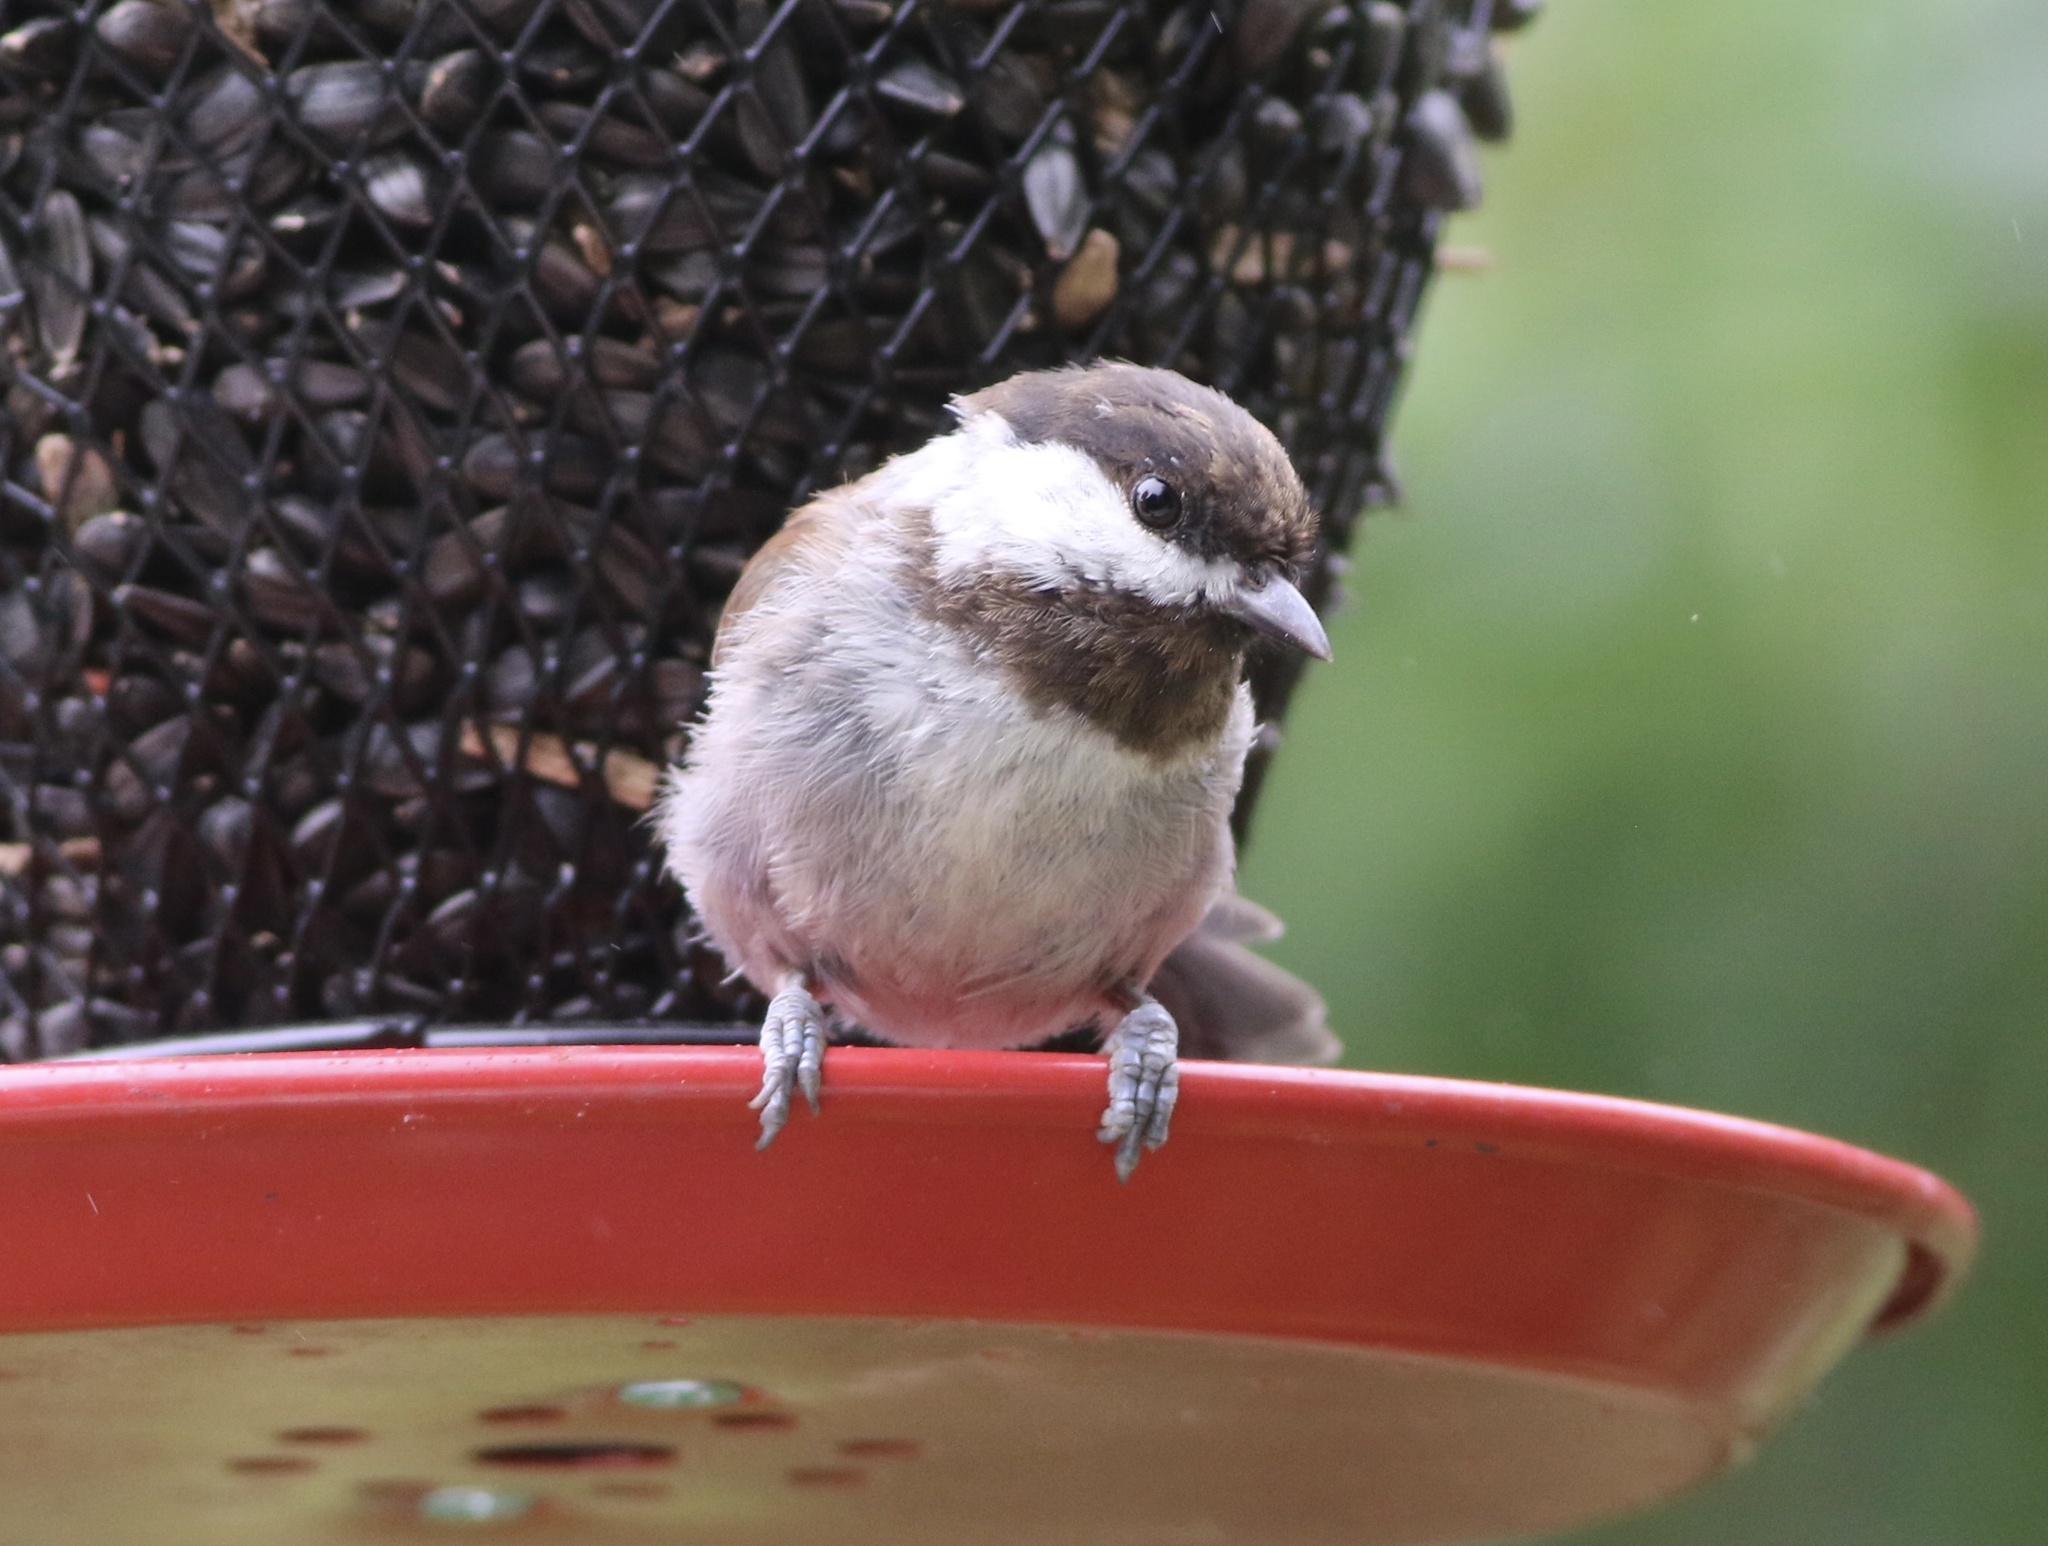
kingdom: Animalia
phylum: Chordata
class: Aves
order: Passeriformes
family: Paridae
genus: Poecile
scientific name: Poecile rufescens
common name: Chestnut-backed chickadee
